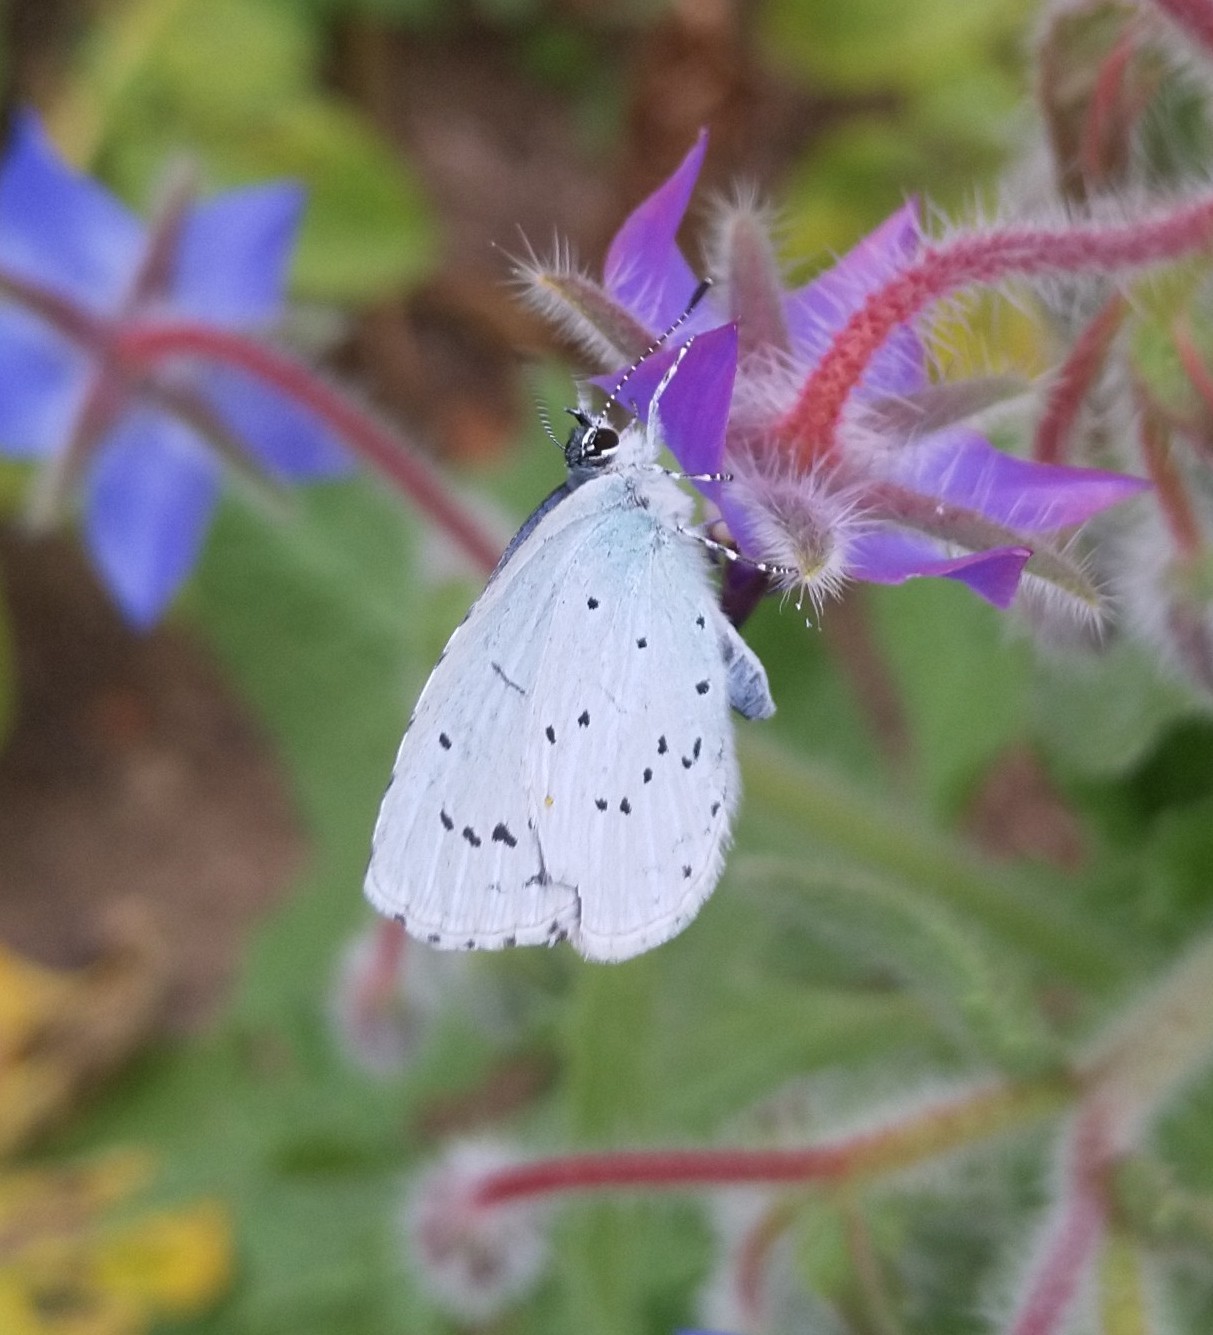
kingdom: Animalia
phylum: Arthropoda
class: Insecta
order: Lepidoptera
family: Lycaenidae
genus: Celastrina
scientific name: Celastrina argiolus
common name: Holly blue
